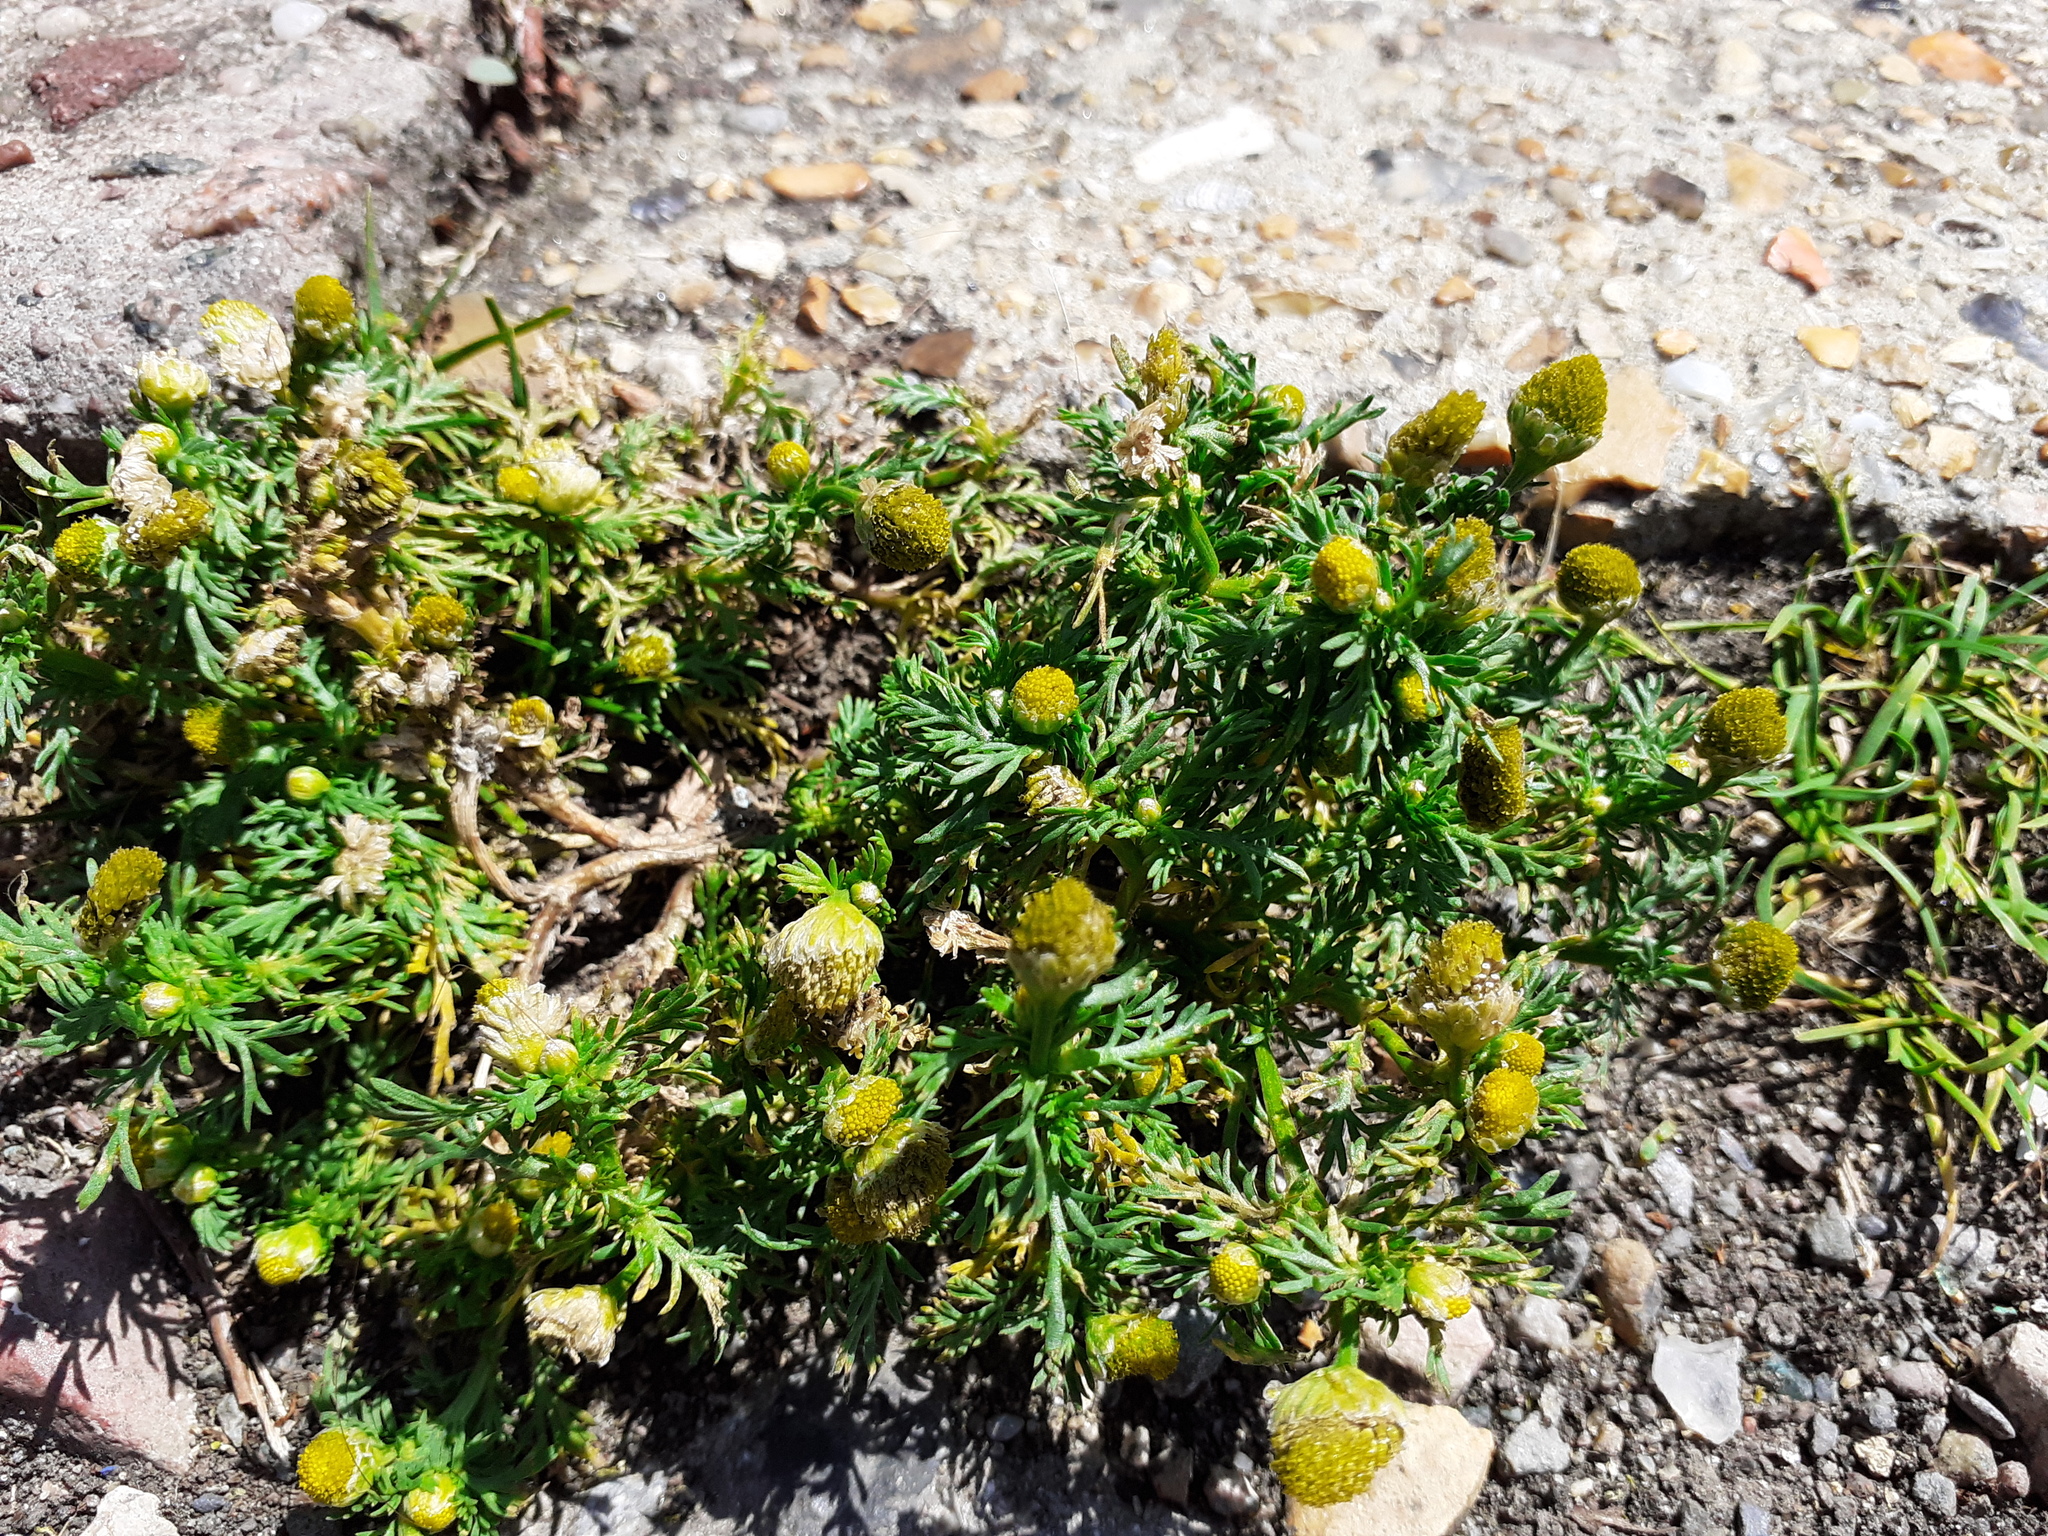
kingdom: Plantae
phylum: Tracheophyta
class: Magnoliopsida
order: Asterales
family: Asteraceae
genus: Matricaria
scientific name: Matricaria discoidea
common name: Disc mayweed
